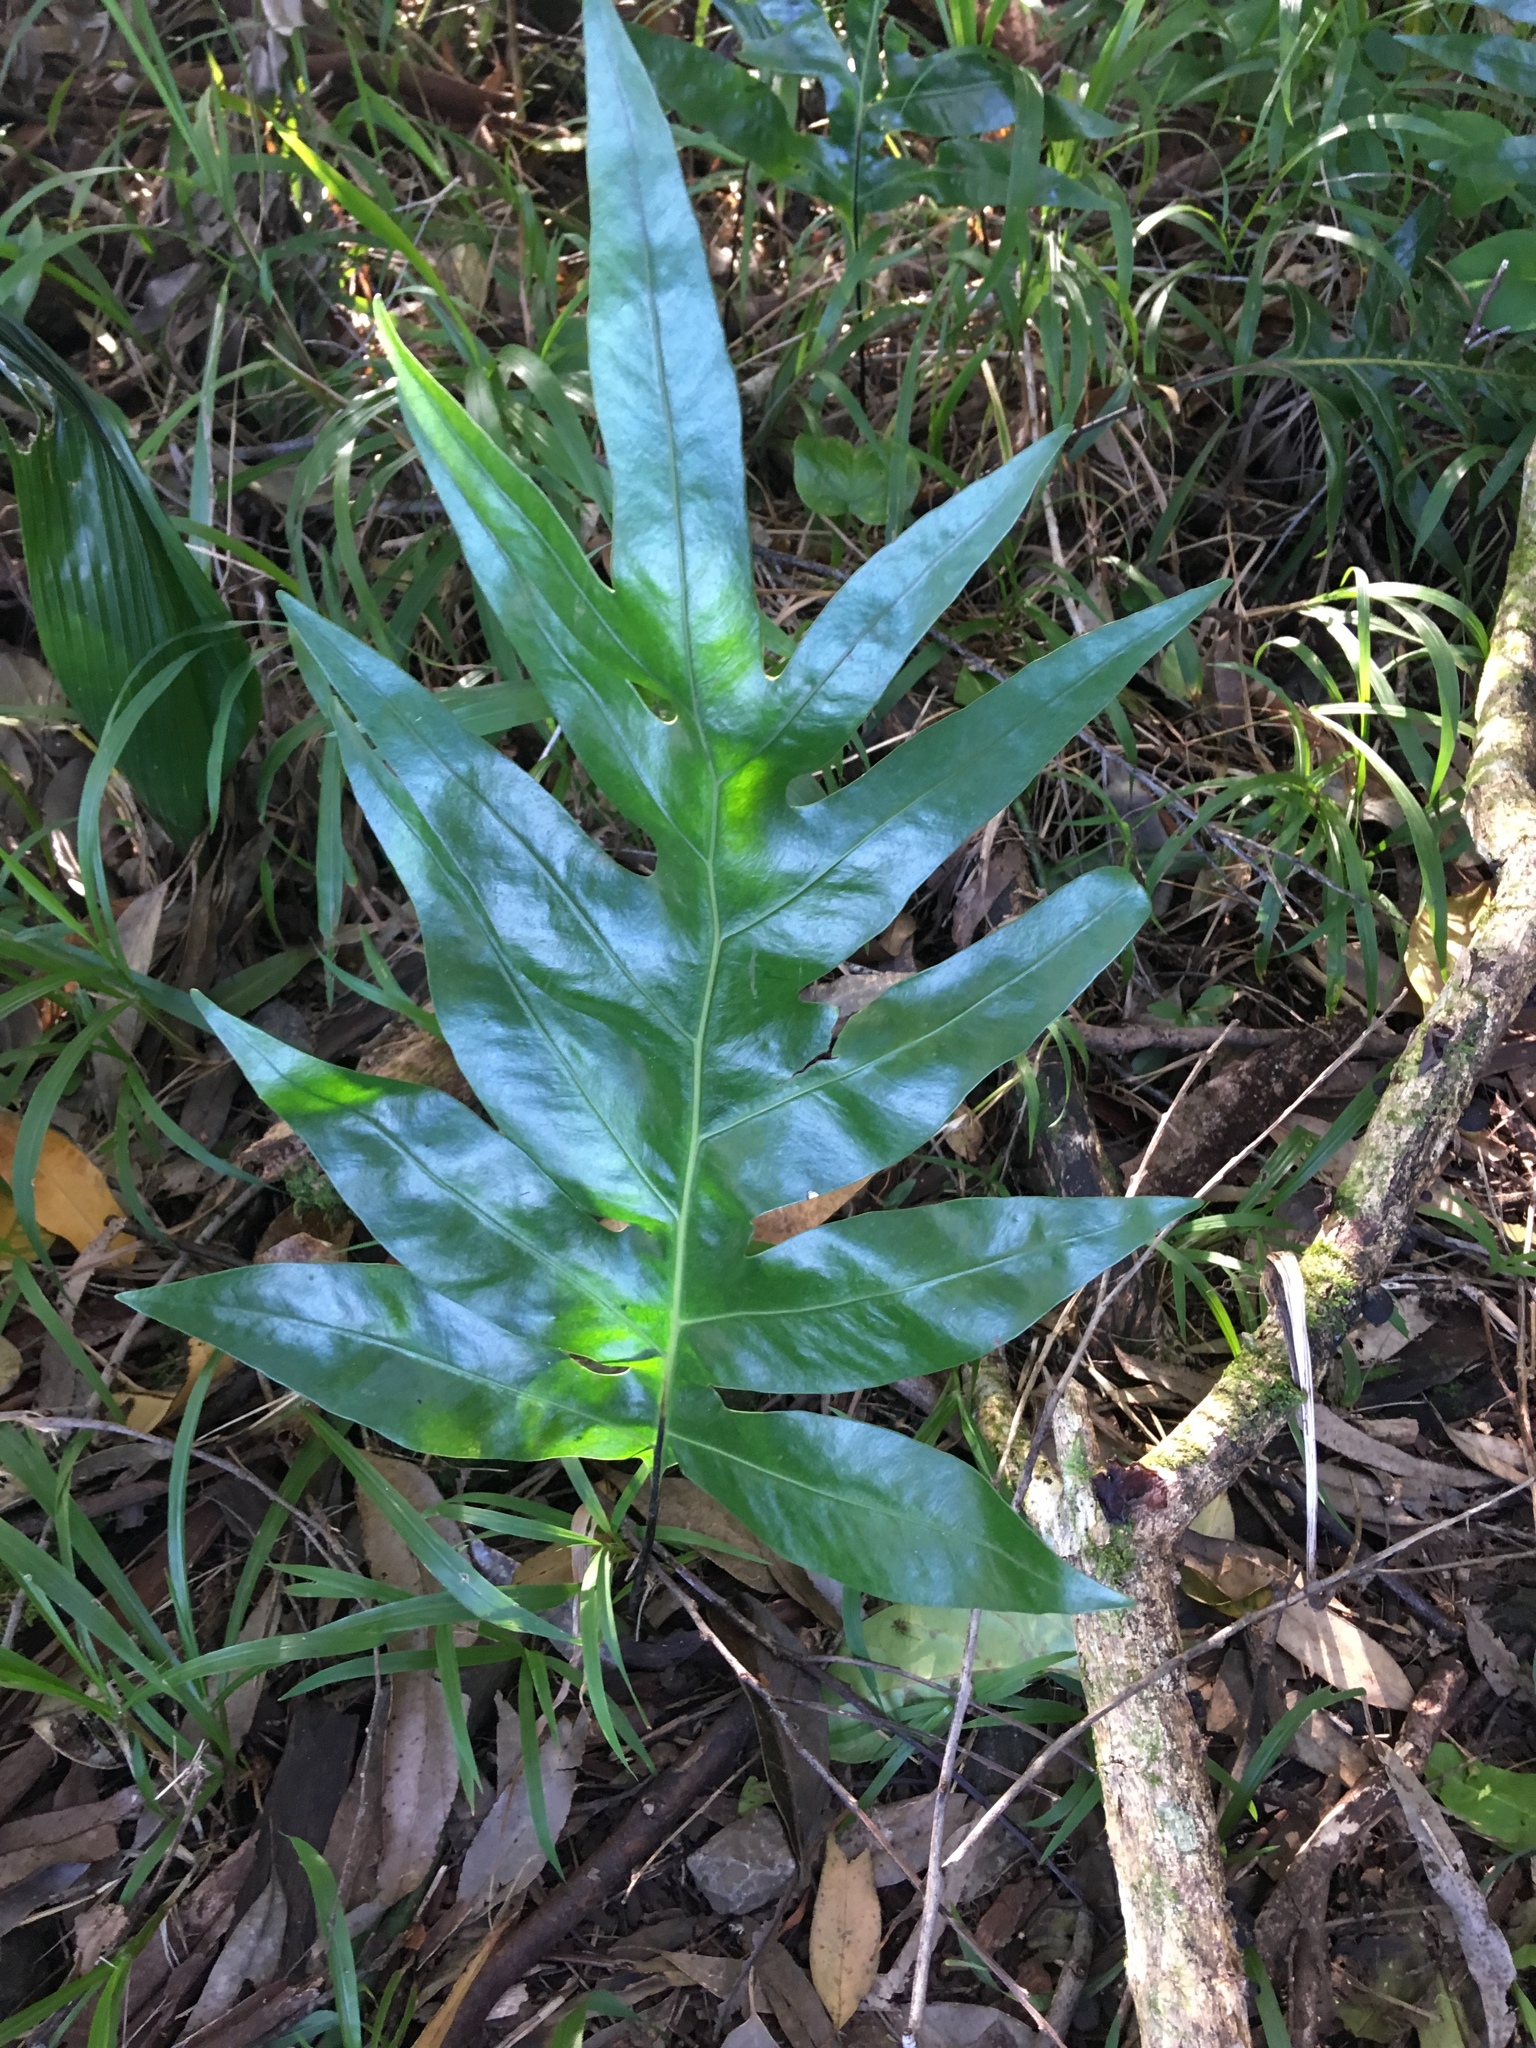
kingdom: Plantae
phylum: Tracheophyta
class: Polypodiopsida
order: Polypodiales
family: Polypodiaceae
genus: Microsorum
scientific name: Microsorum grossum
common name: Musk fern
